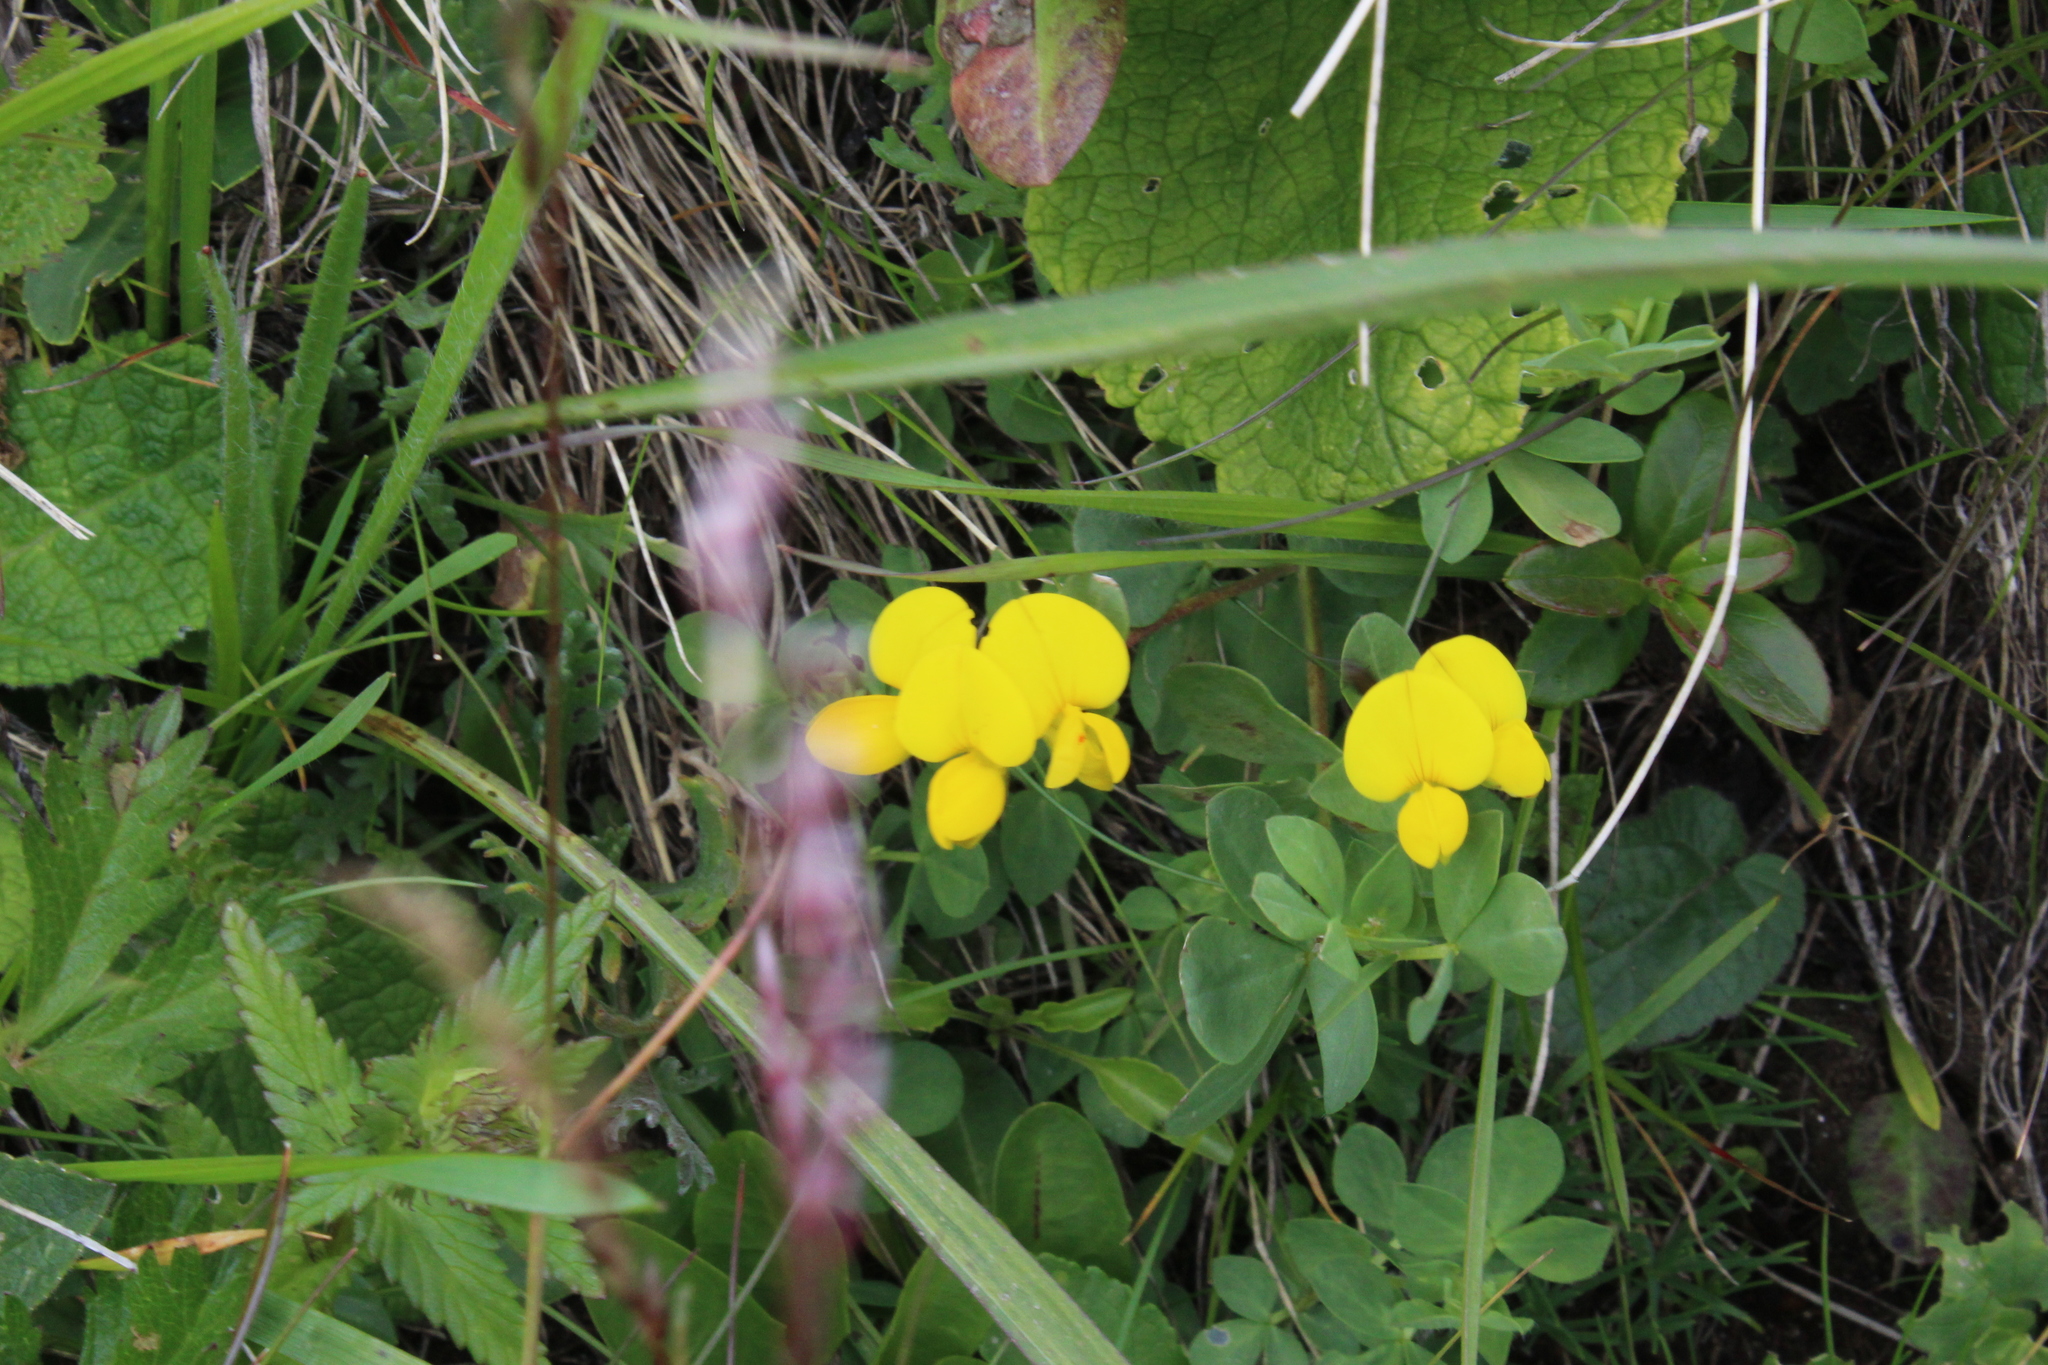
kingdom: Plantae
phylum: Tracheophyta
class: Magnoliopsida
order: Fabales
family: Fabaceae
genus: Lotus
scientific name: Lotus corniculatus
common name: Common bird's-foot-trefoil
